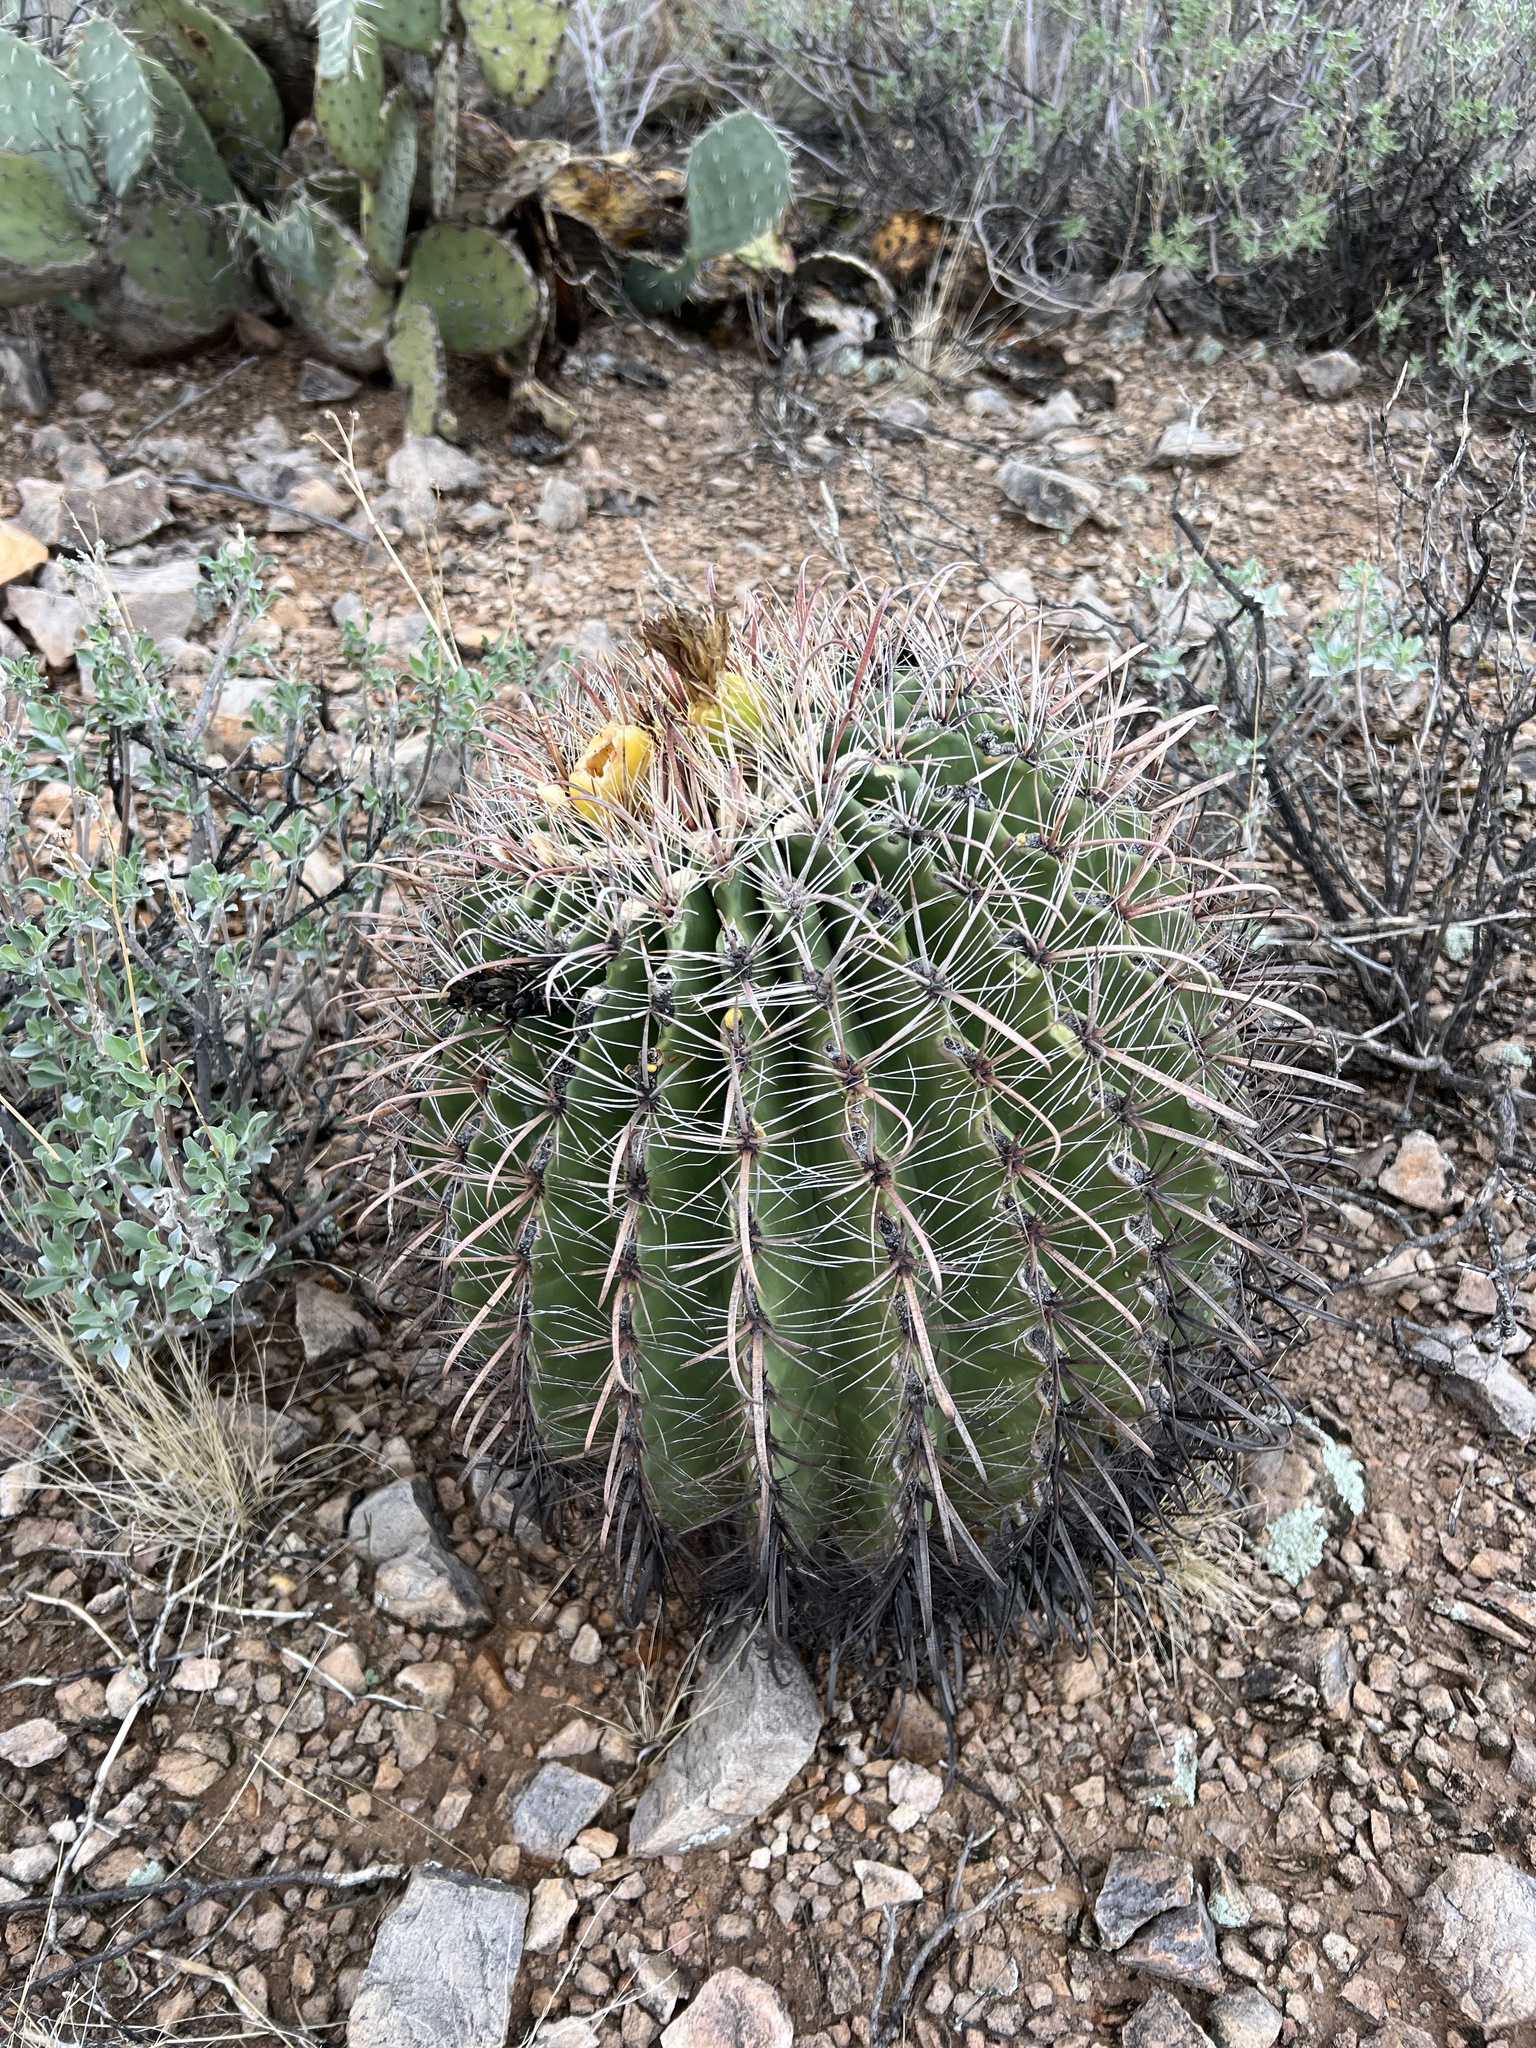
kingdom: Plantae
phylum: Tracheophyta
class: Magnoliopsida
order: Caryophyllales
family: Cactaceae
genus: Ferocactus
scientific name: Ferocactus wislizeni
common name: Candy barrel cactus
